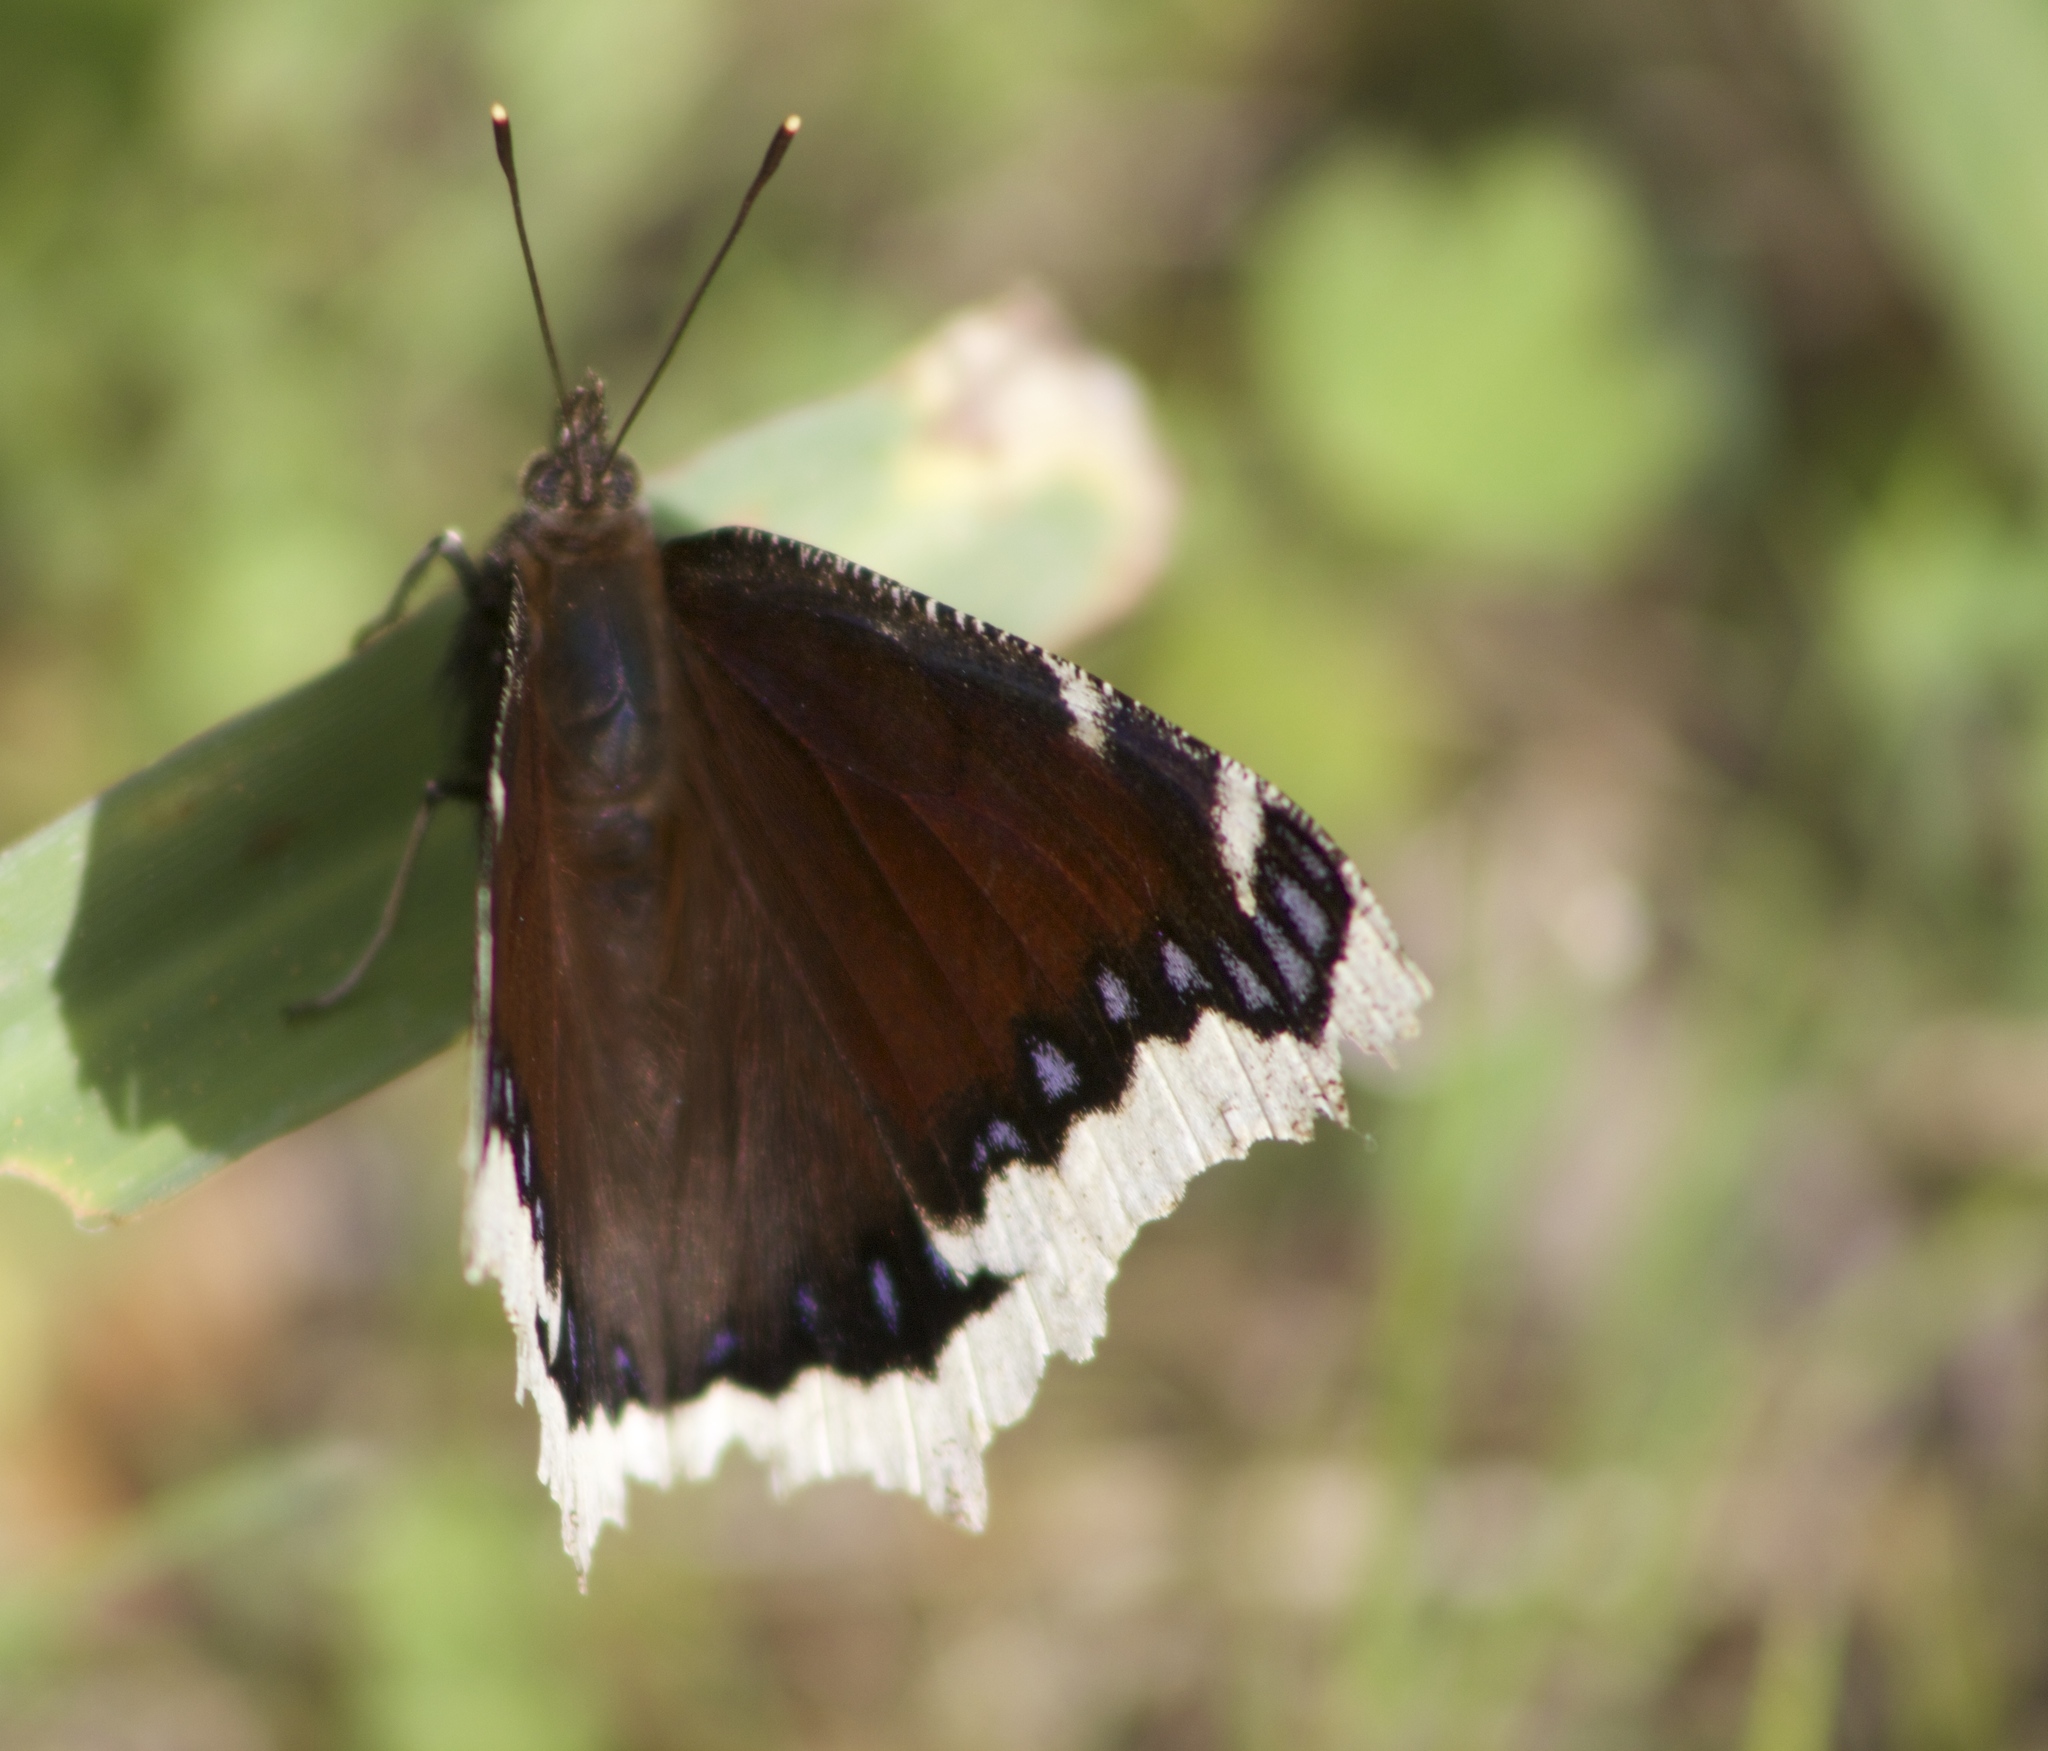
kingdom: Animalia
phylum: Arthropoda
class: Insecta
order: Lepidoptera
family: Nymphalidae
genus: Nymphalis
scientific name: Nymphalis antiopa
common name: Camberwell beauty
